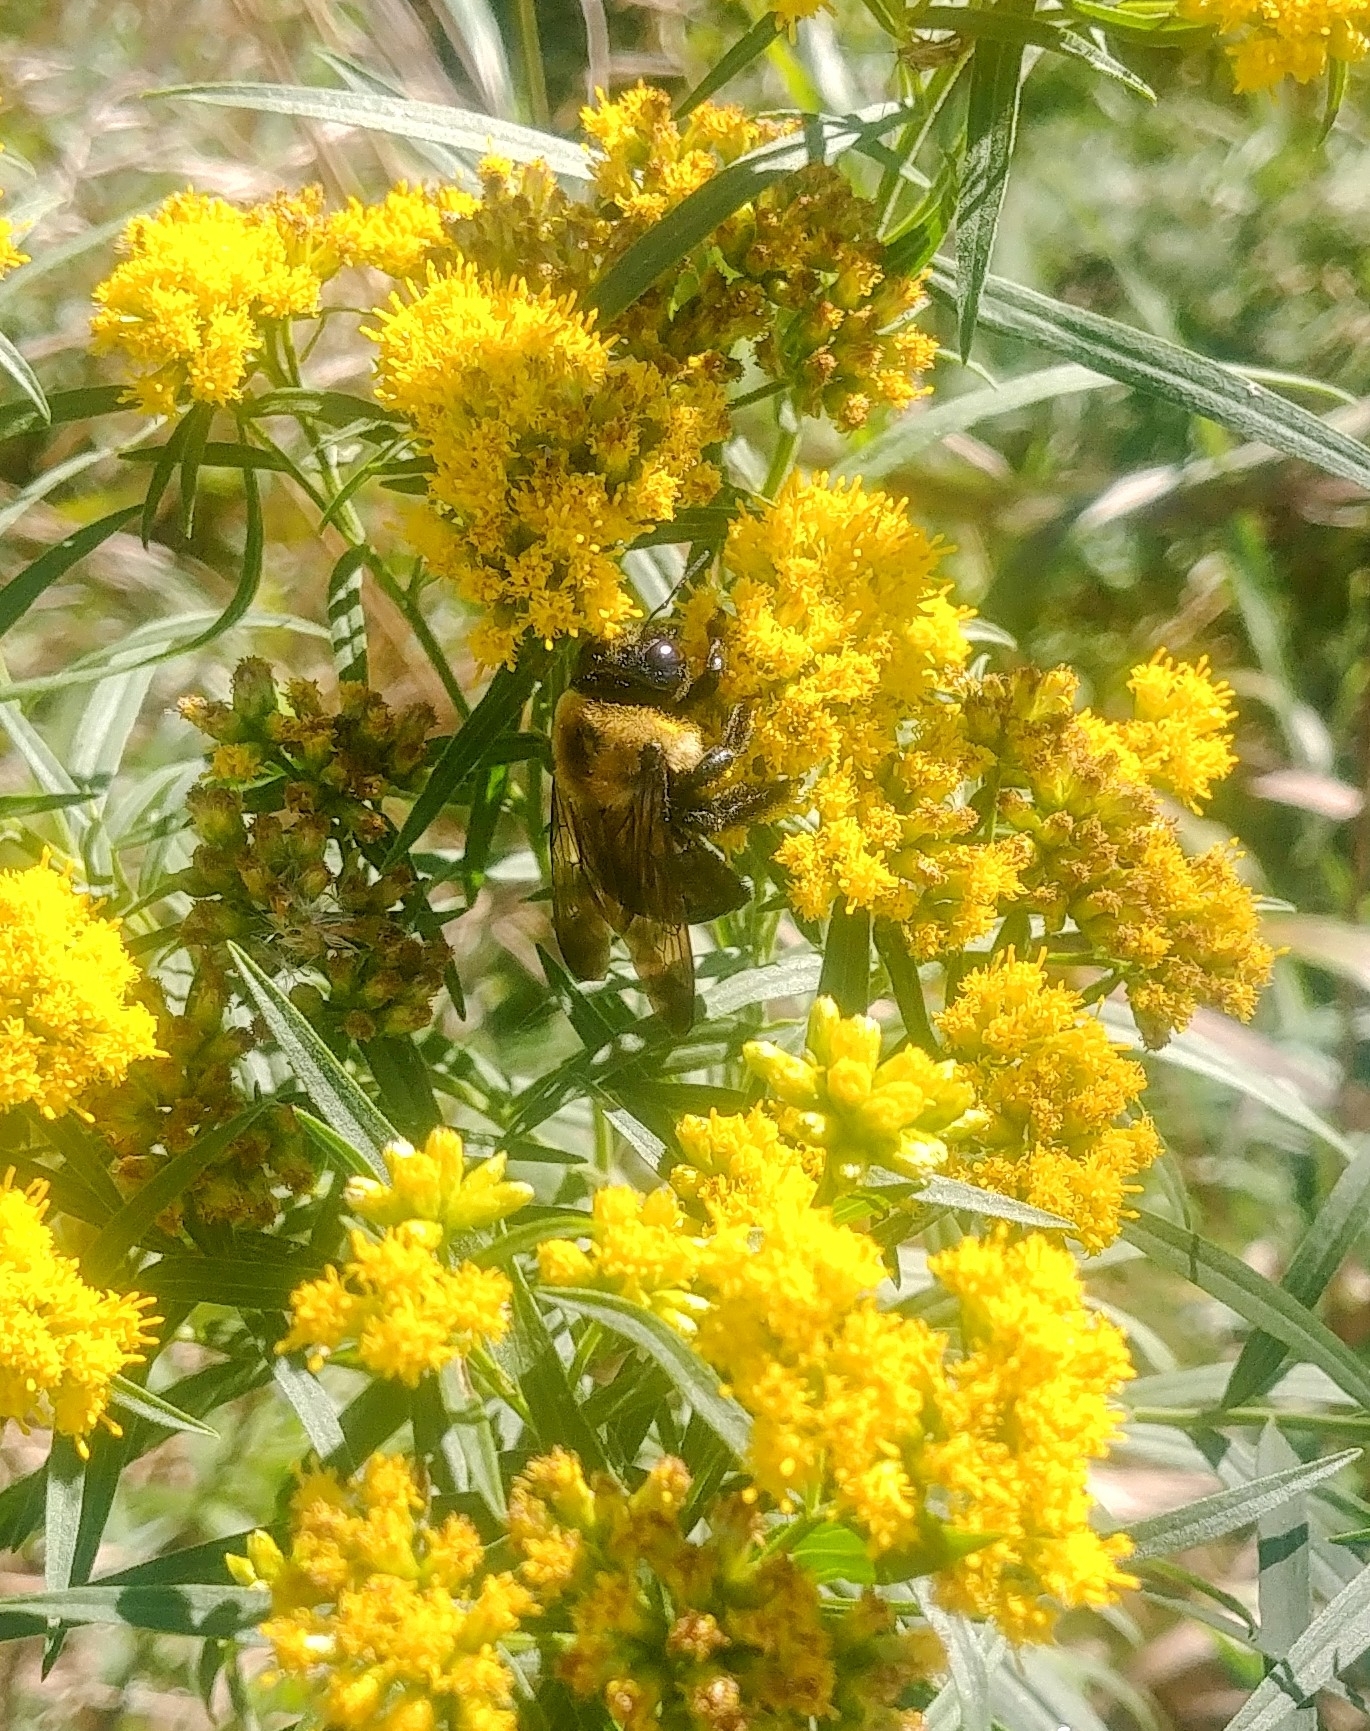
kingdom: Animalia
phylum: Arthropoda
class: Insecta
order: Hymenoptera
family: Apidae
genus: Xylocopa
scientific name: Xylocopa virginica
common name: Carpenter bee
